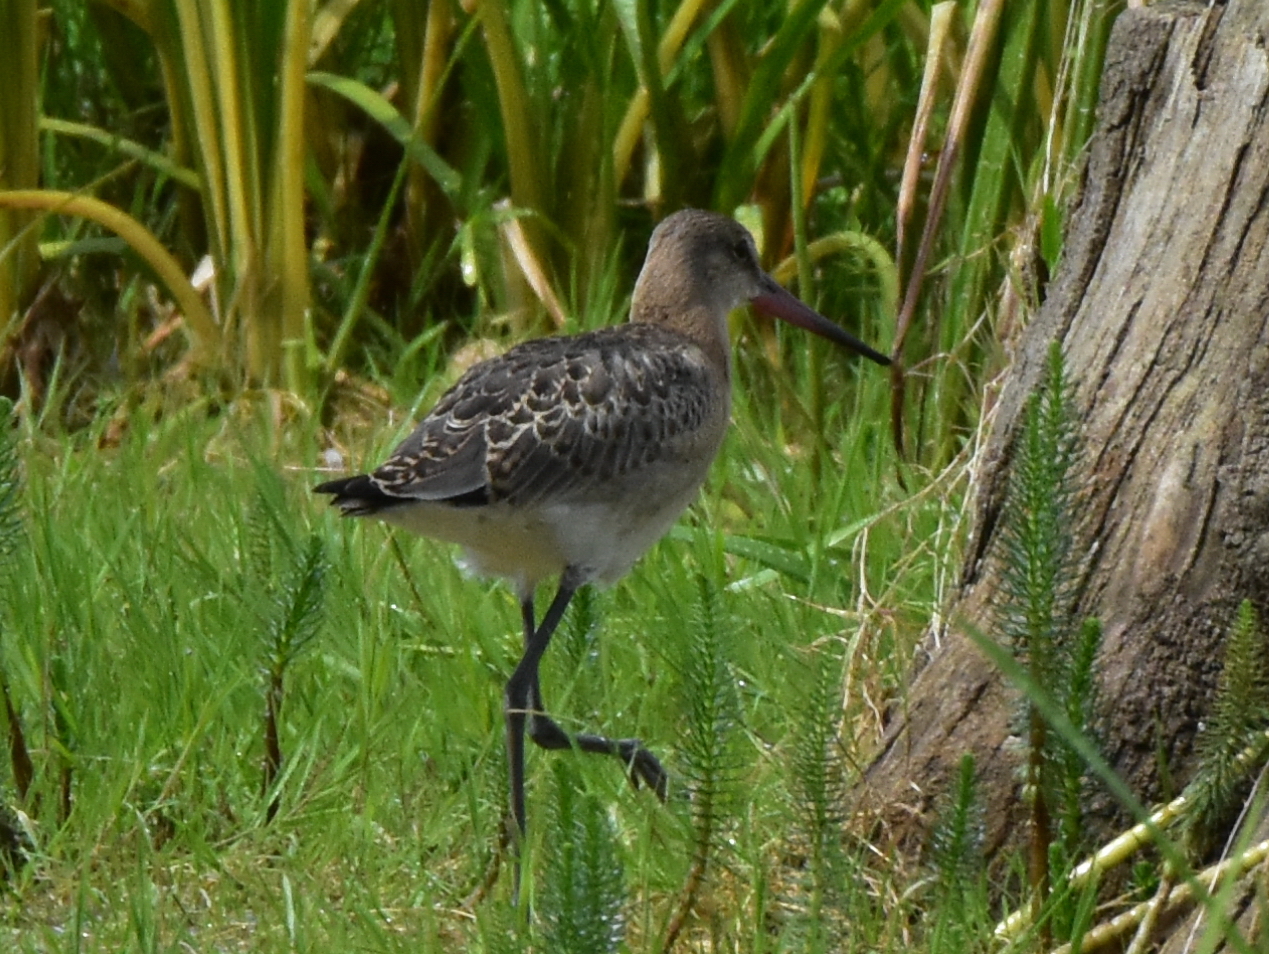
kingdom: Animalia
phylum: Chordata
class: Aves
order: Charadriiformes
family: Scolopacidae
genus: Limosa
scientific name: Limosa limosa
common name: Black-tailed godwit
